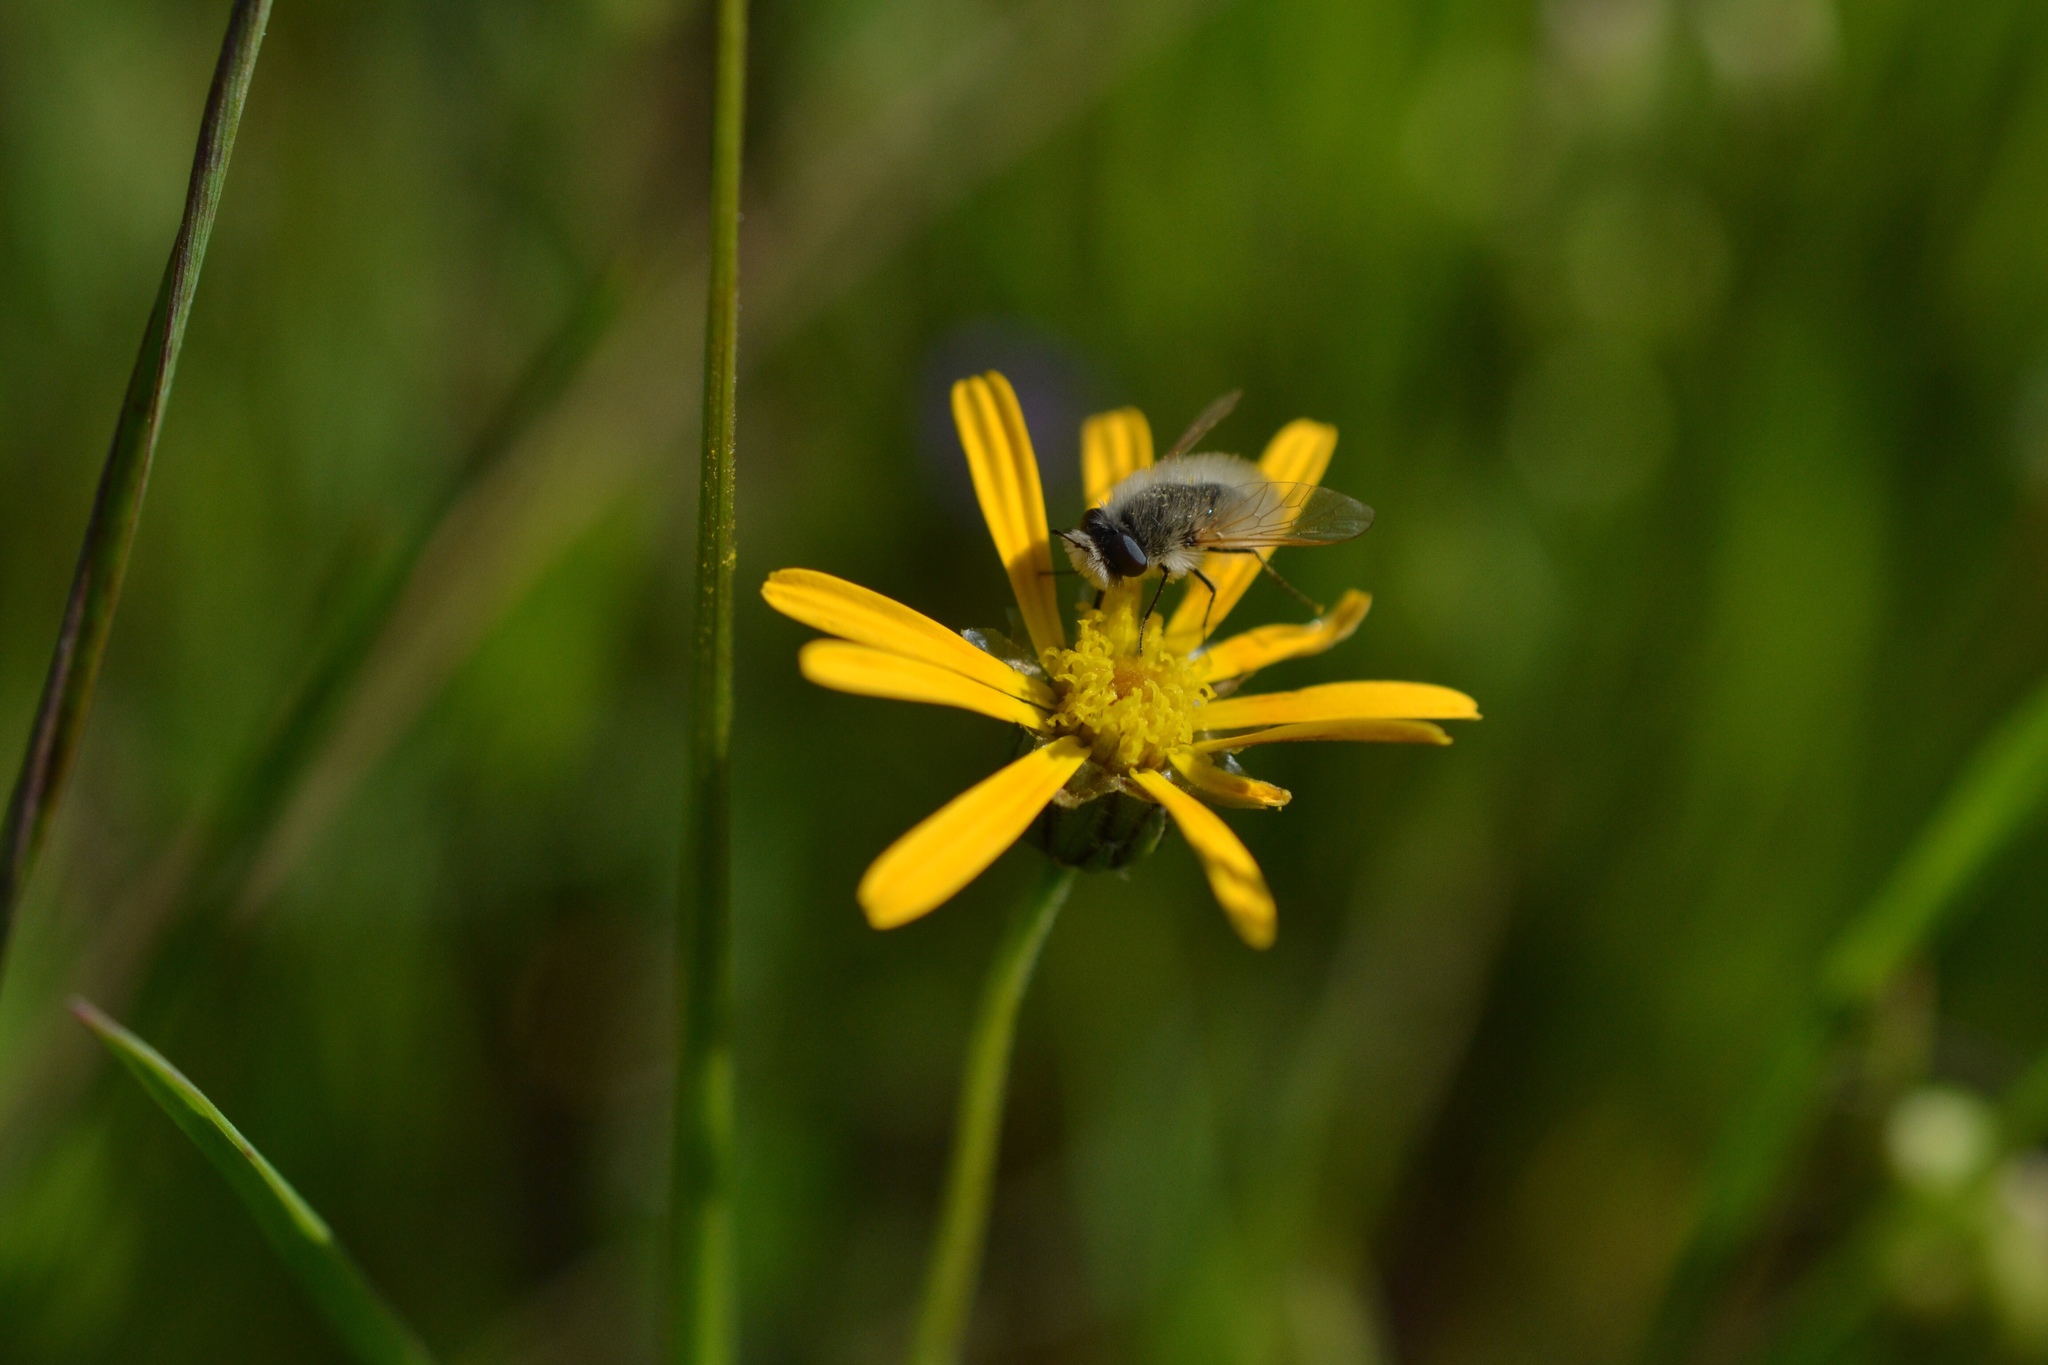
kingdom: Animalia
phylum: Arthropoda
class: Insecta
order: Diptera
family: Bombyliidae
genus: Corsomyza
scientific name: Corsomyza tricellulata
